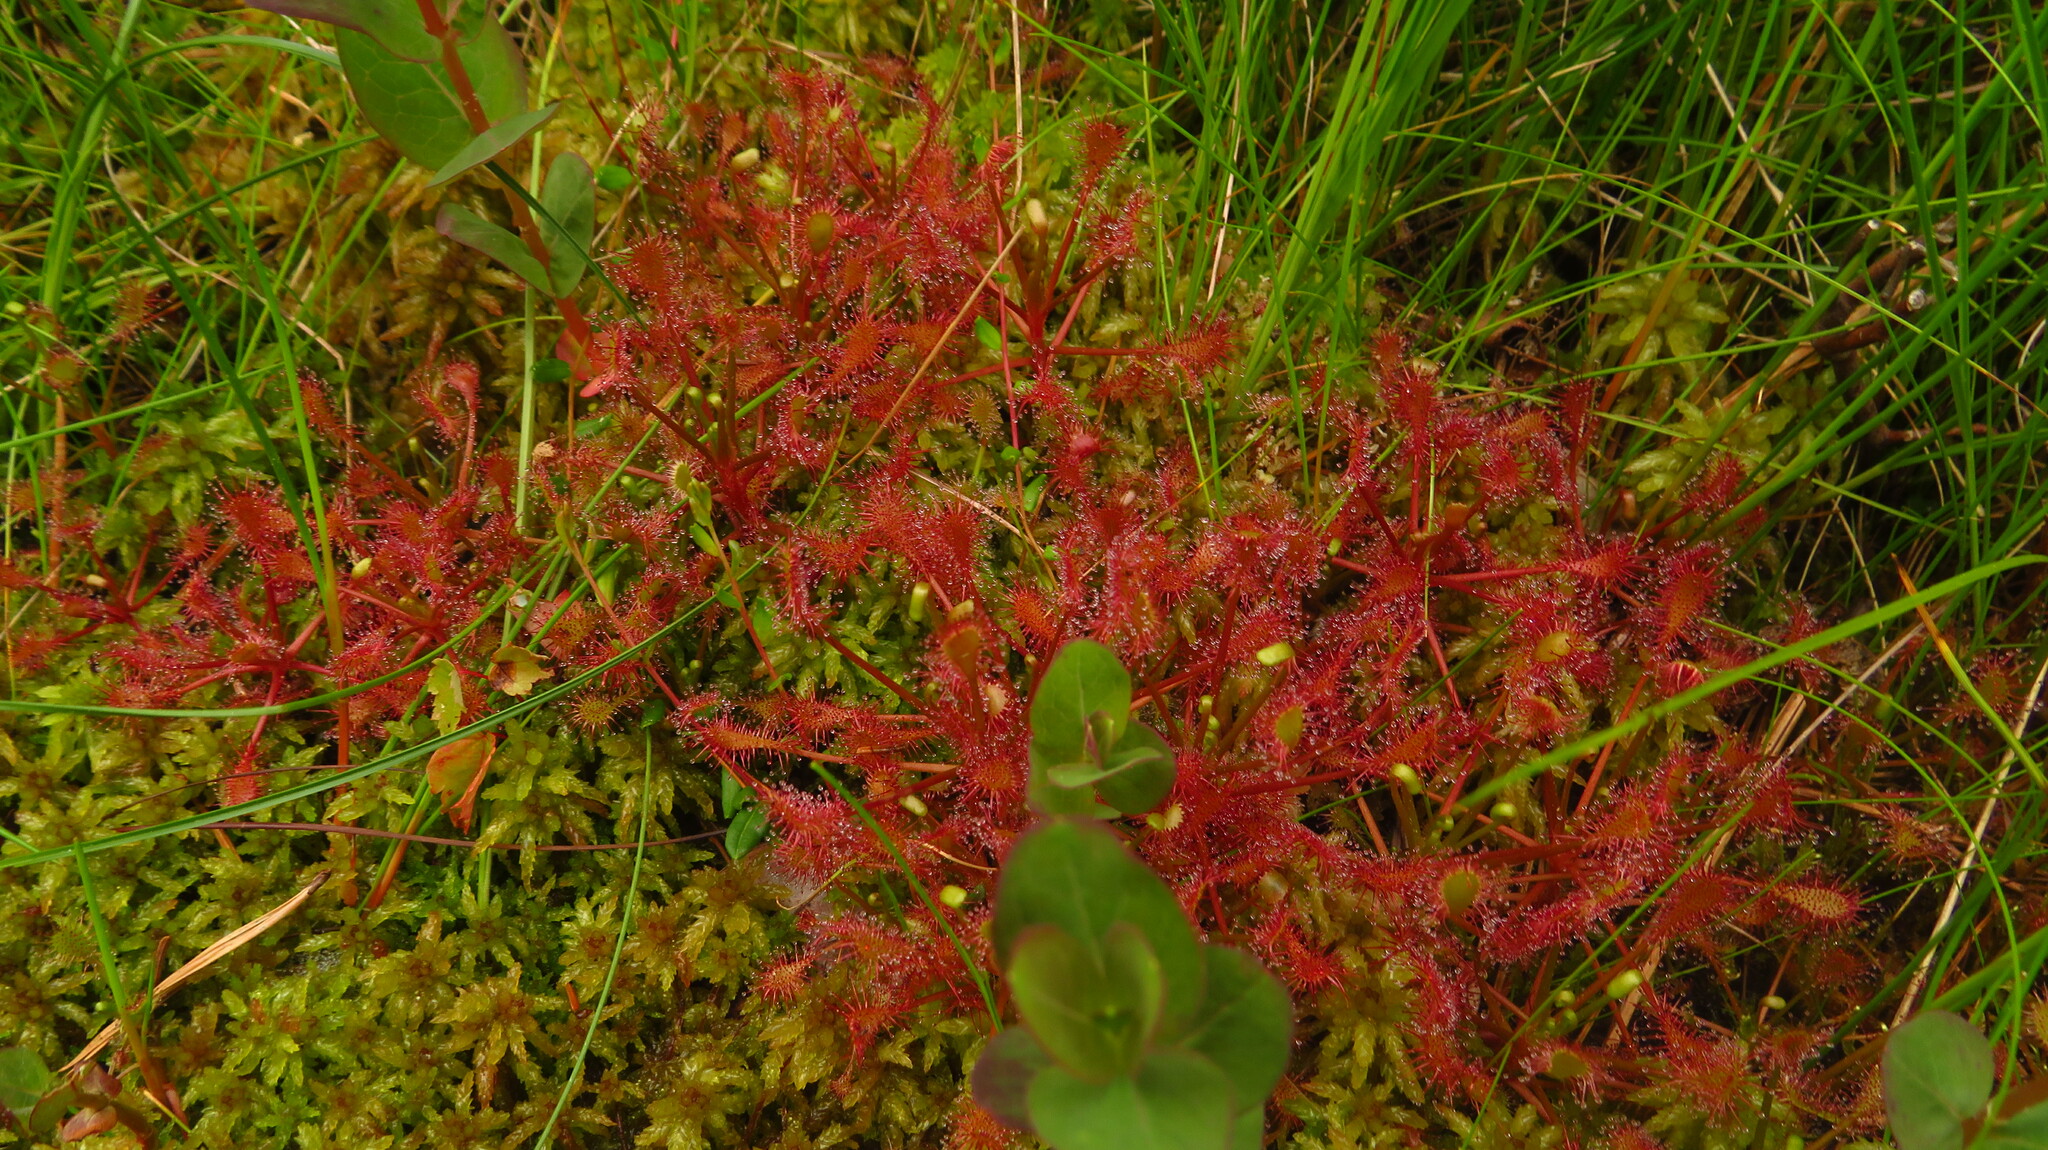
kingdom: Plantae
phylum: Tracheophyta
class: Magnoliopsida
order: Caryophyllales
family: Droseraceae
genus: Drosera
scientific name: Drosera intermedia
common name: Oblong-leaved sundew
